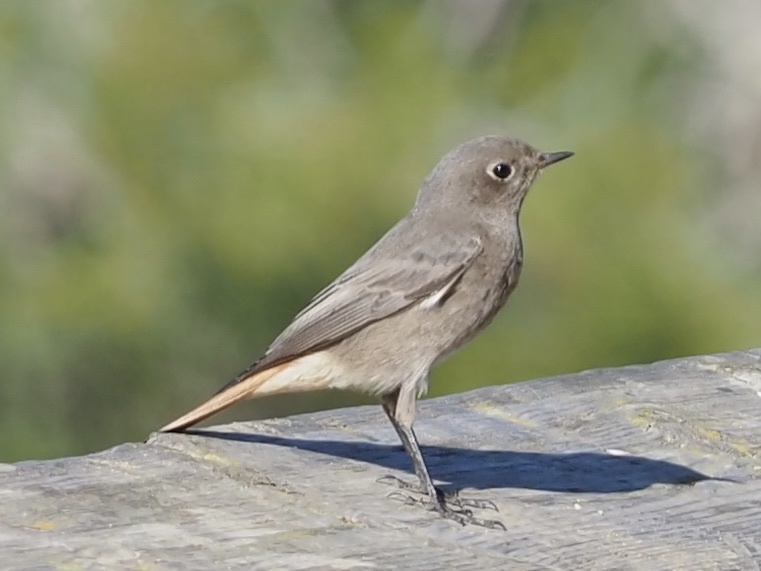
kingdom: Animalia
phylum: Chordata
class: Aves
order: Passeriformes
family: Muscicapidae
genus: Phoenicurus
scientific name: Phoenicurus ochruros
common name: Black redstart
